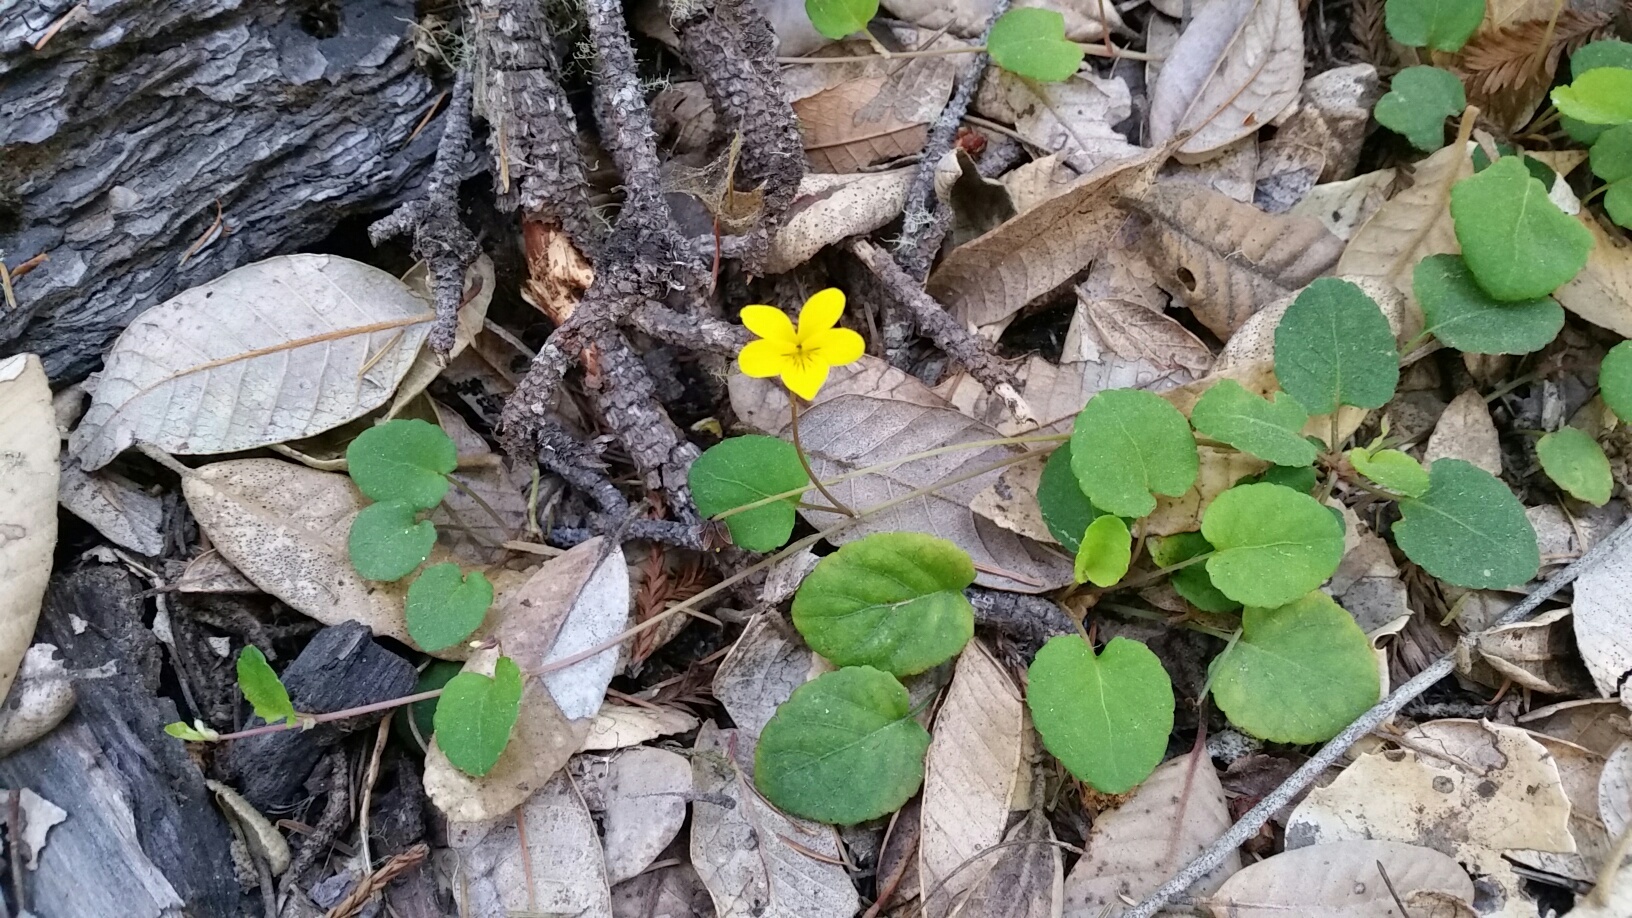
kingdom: Plantae
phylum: Tracheophyta
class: Magnoliopsida
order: Malpighiales
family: Violaceae
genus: Viola
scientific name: Viola sempervirens
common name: Evergreen violet
